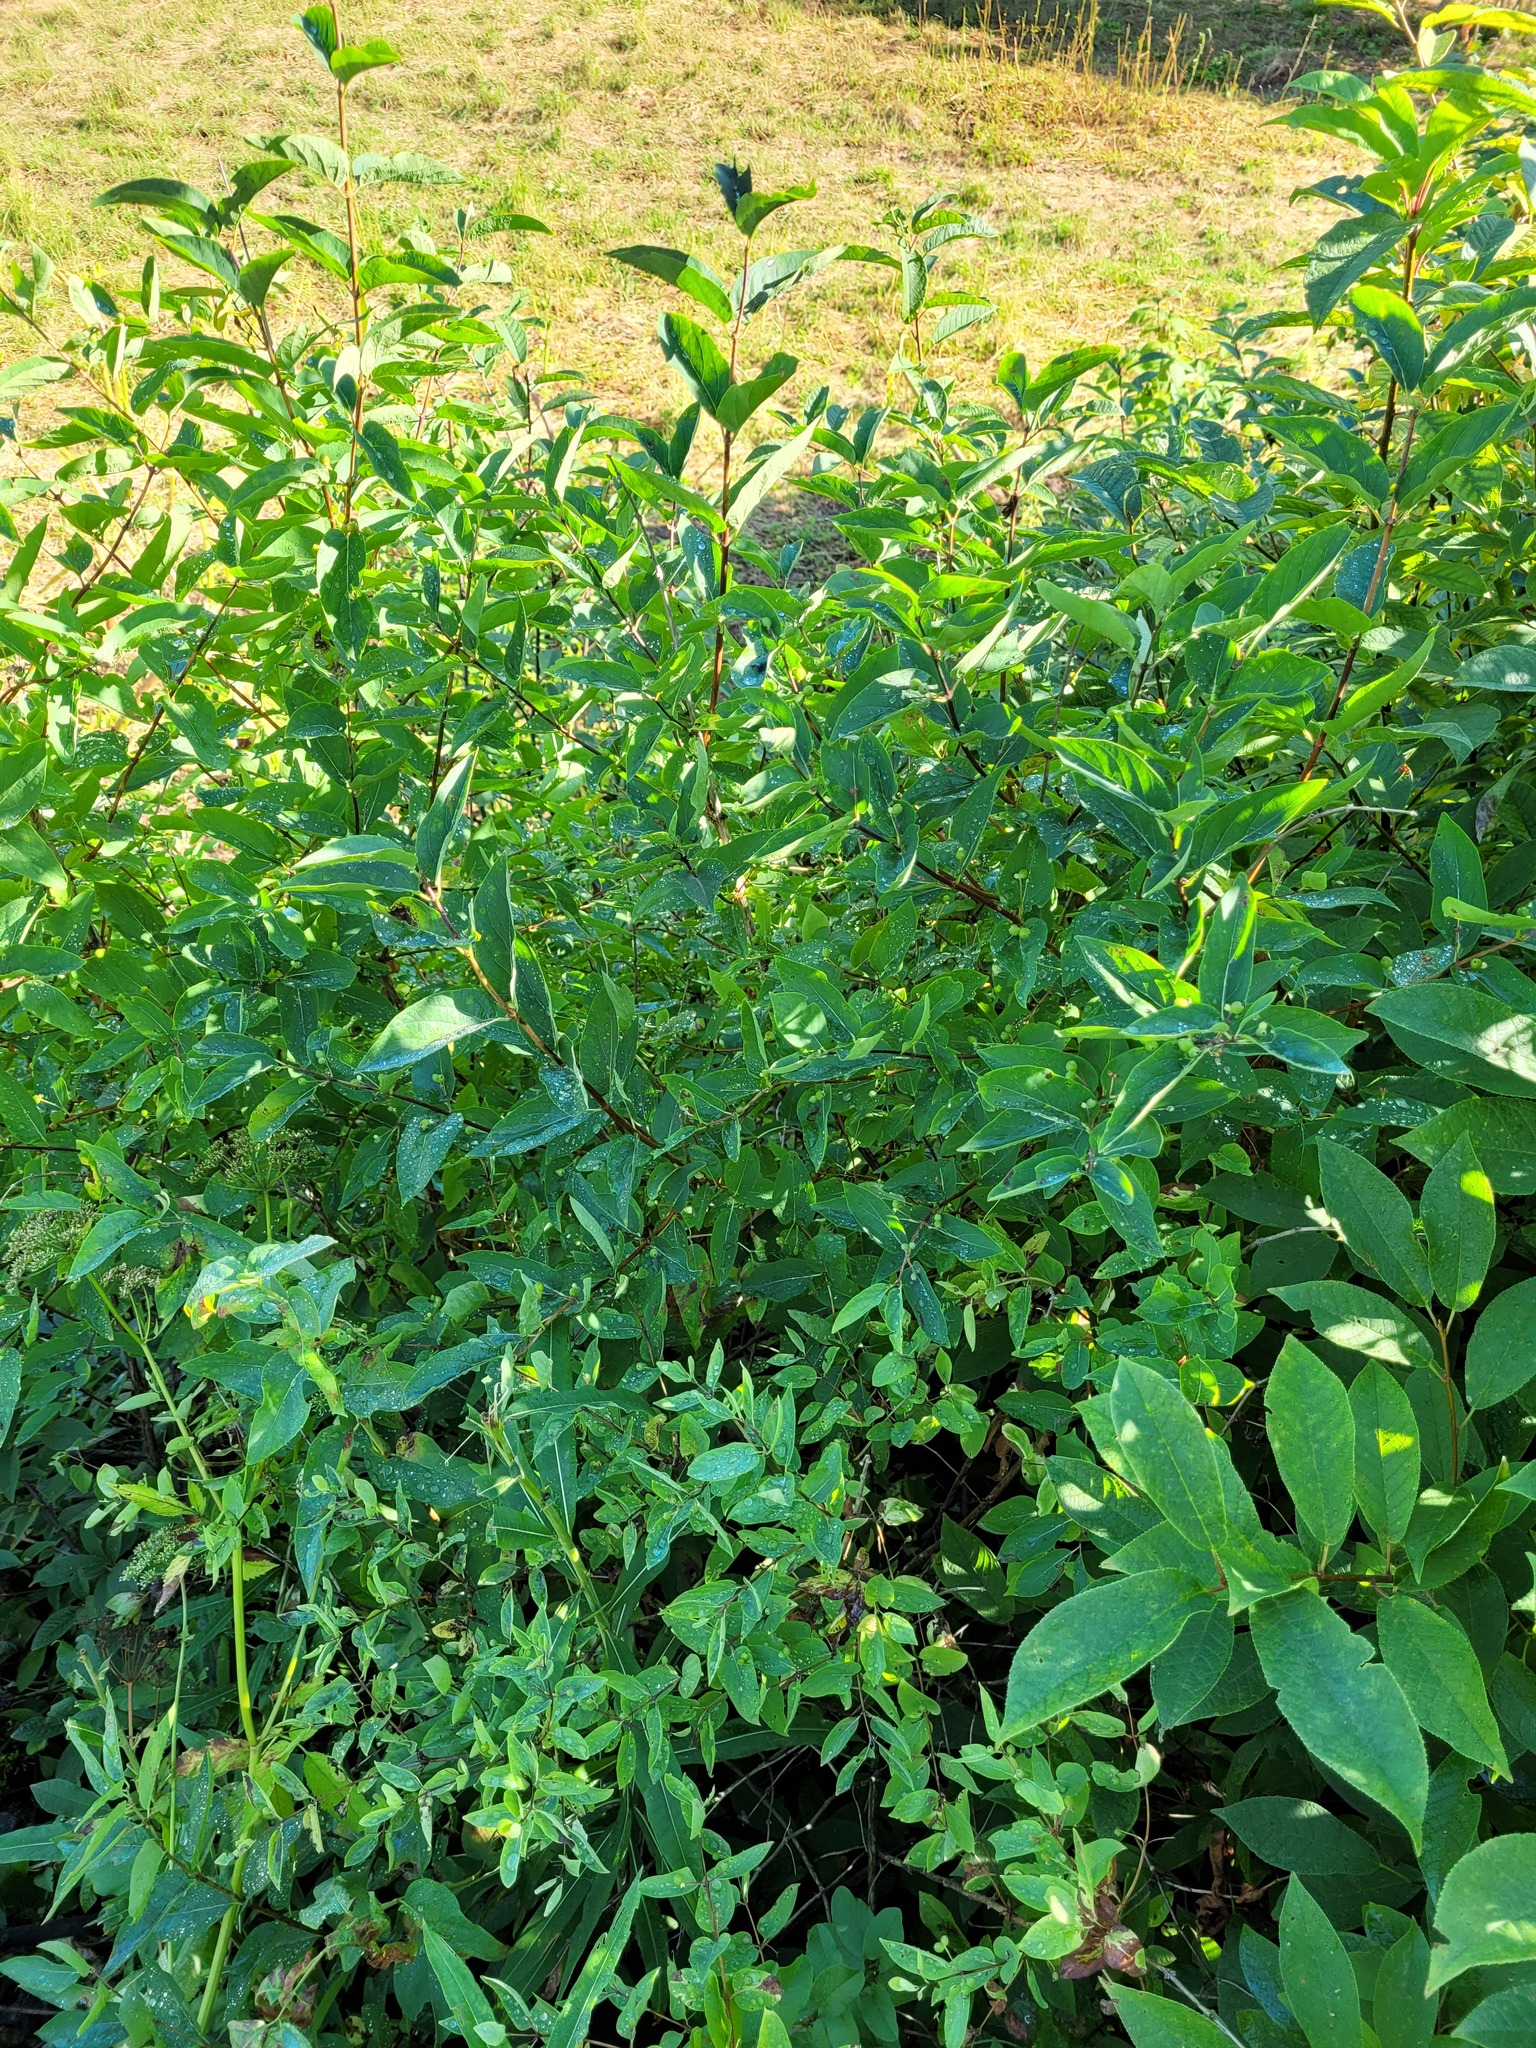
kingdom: Plantae
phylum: Tracheophyta
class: Magnoliopsida
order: Dipsacales
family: Caprifoliaceae
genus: Lonicera
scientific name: Lonicera tatarica
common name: Tatarian honeysuckle
